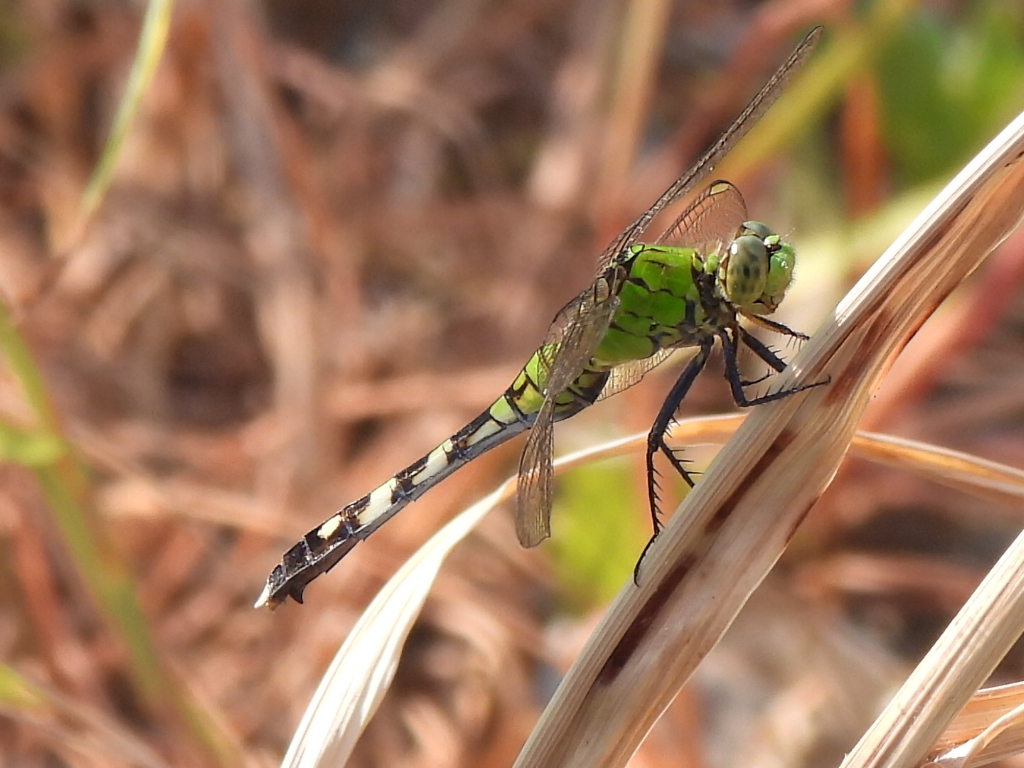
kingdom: Animalia
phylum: Arthropoda
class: Insecta
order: Odonata
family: Libellulidae
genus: Erythemis
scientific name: Erythemis simplicicollis
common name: Eastern pondhawk
